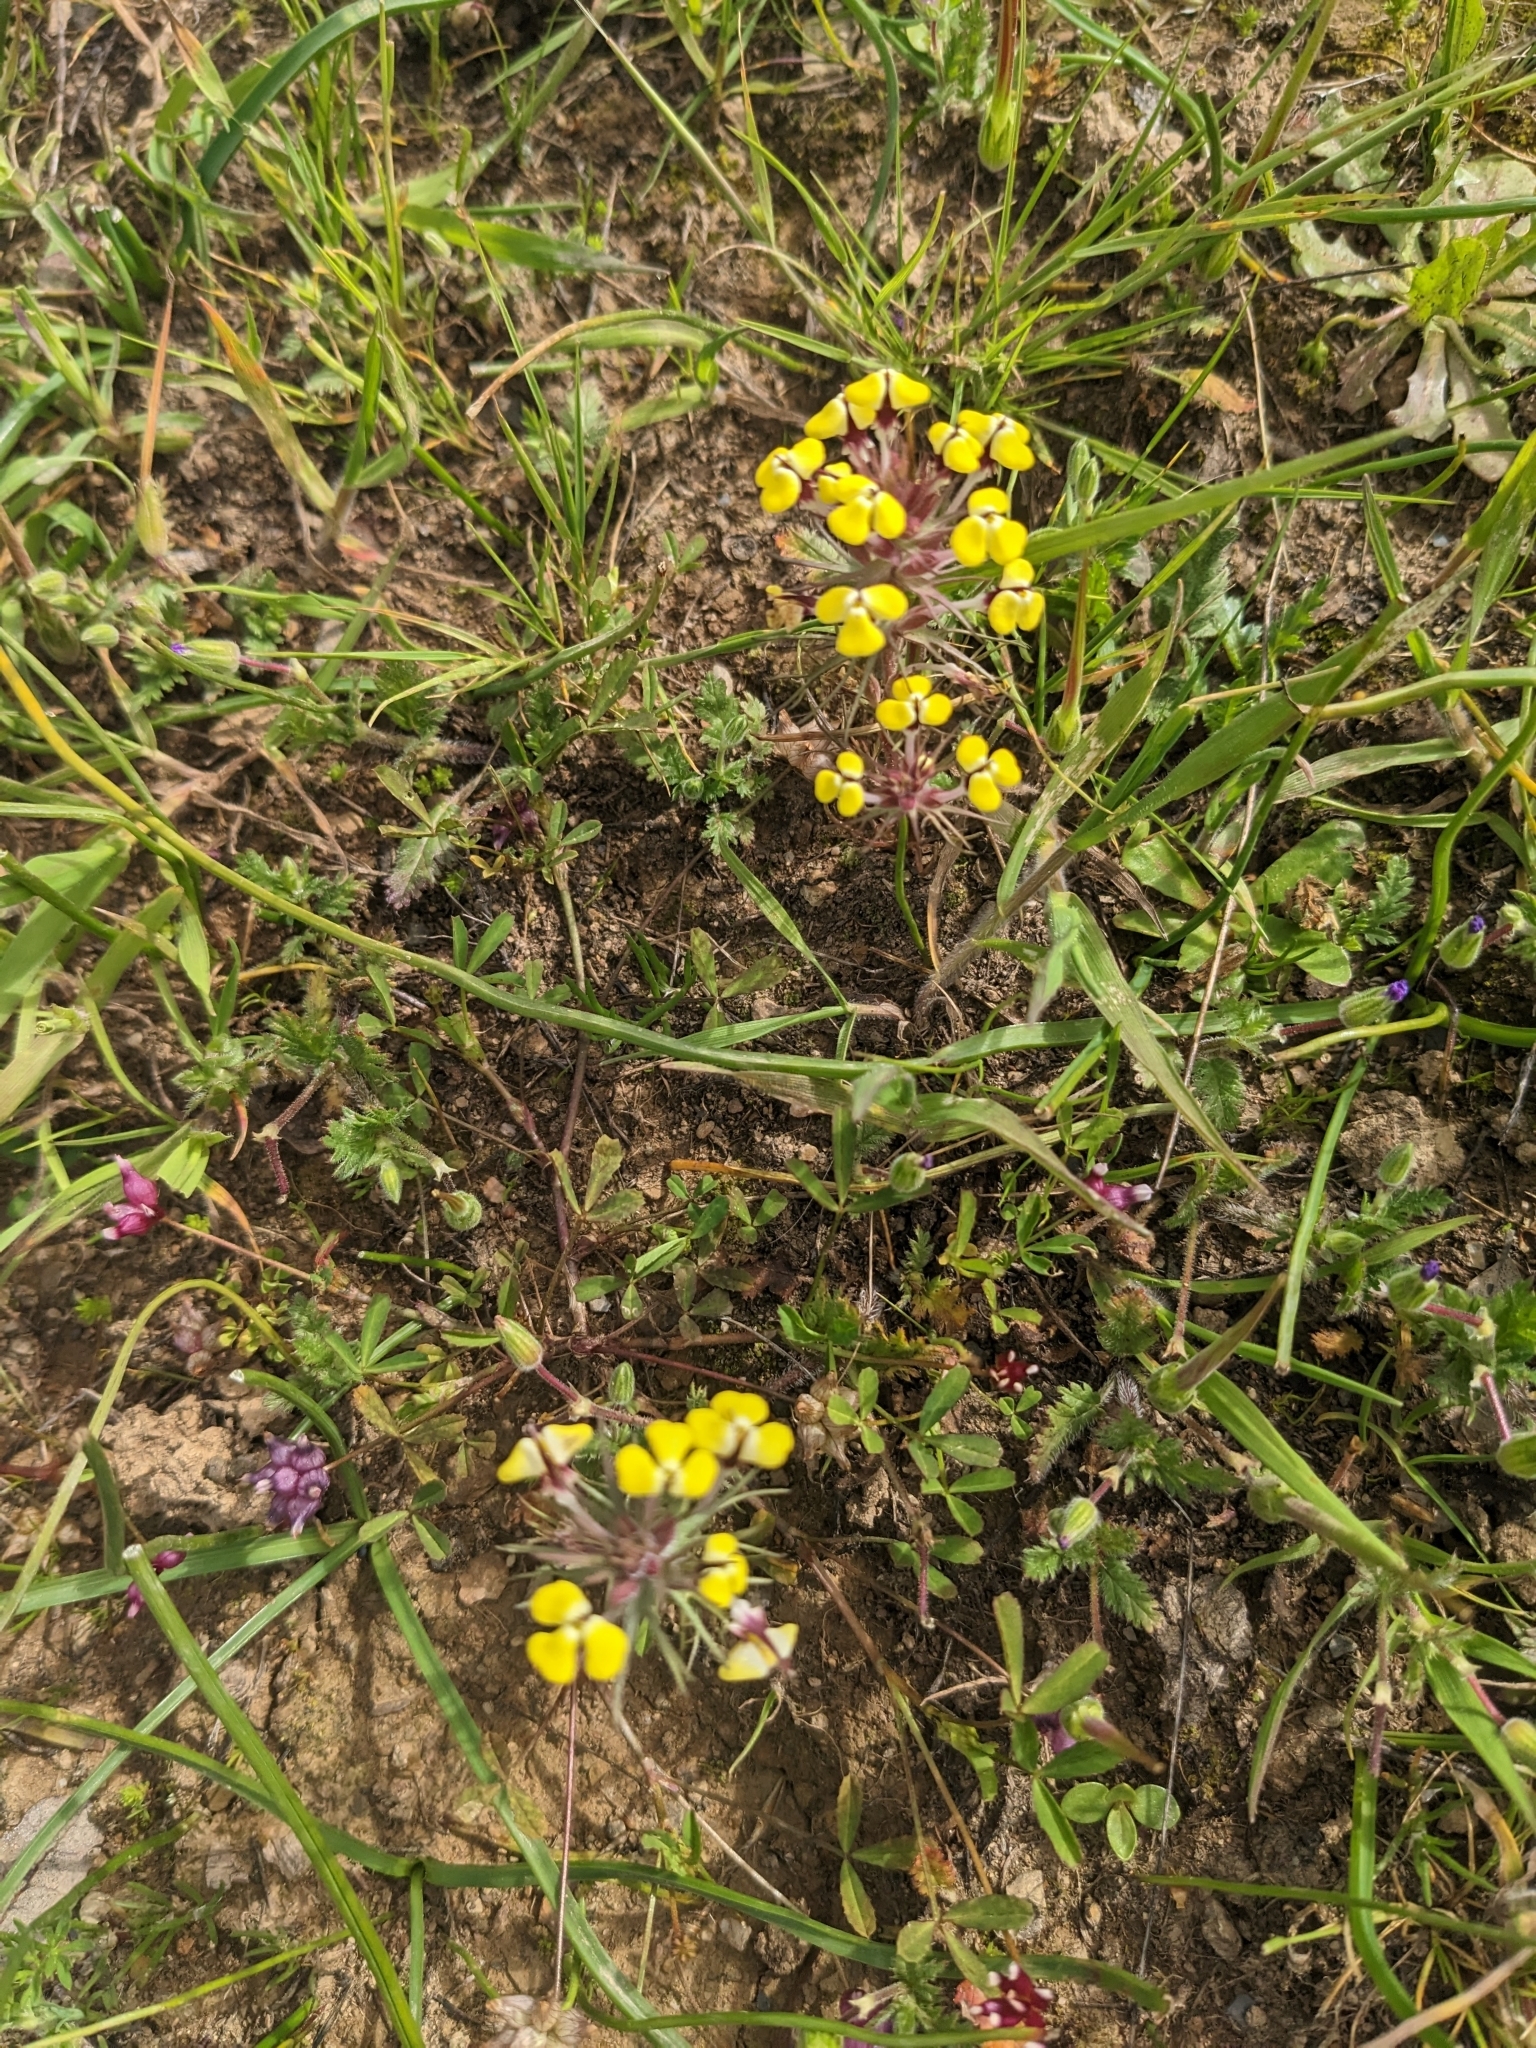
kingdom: Plantae
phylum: Tracheophyta
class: Magnoliopsida
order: Lamiales
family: Orobanchaceae
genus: Triphysaria
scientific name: Triphysaria eriantha
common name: Johnny-tuck
